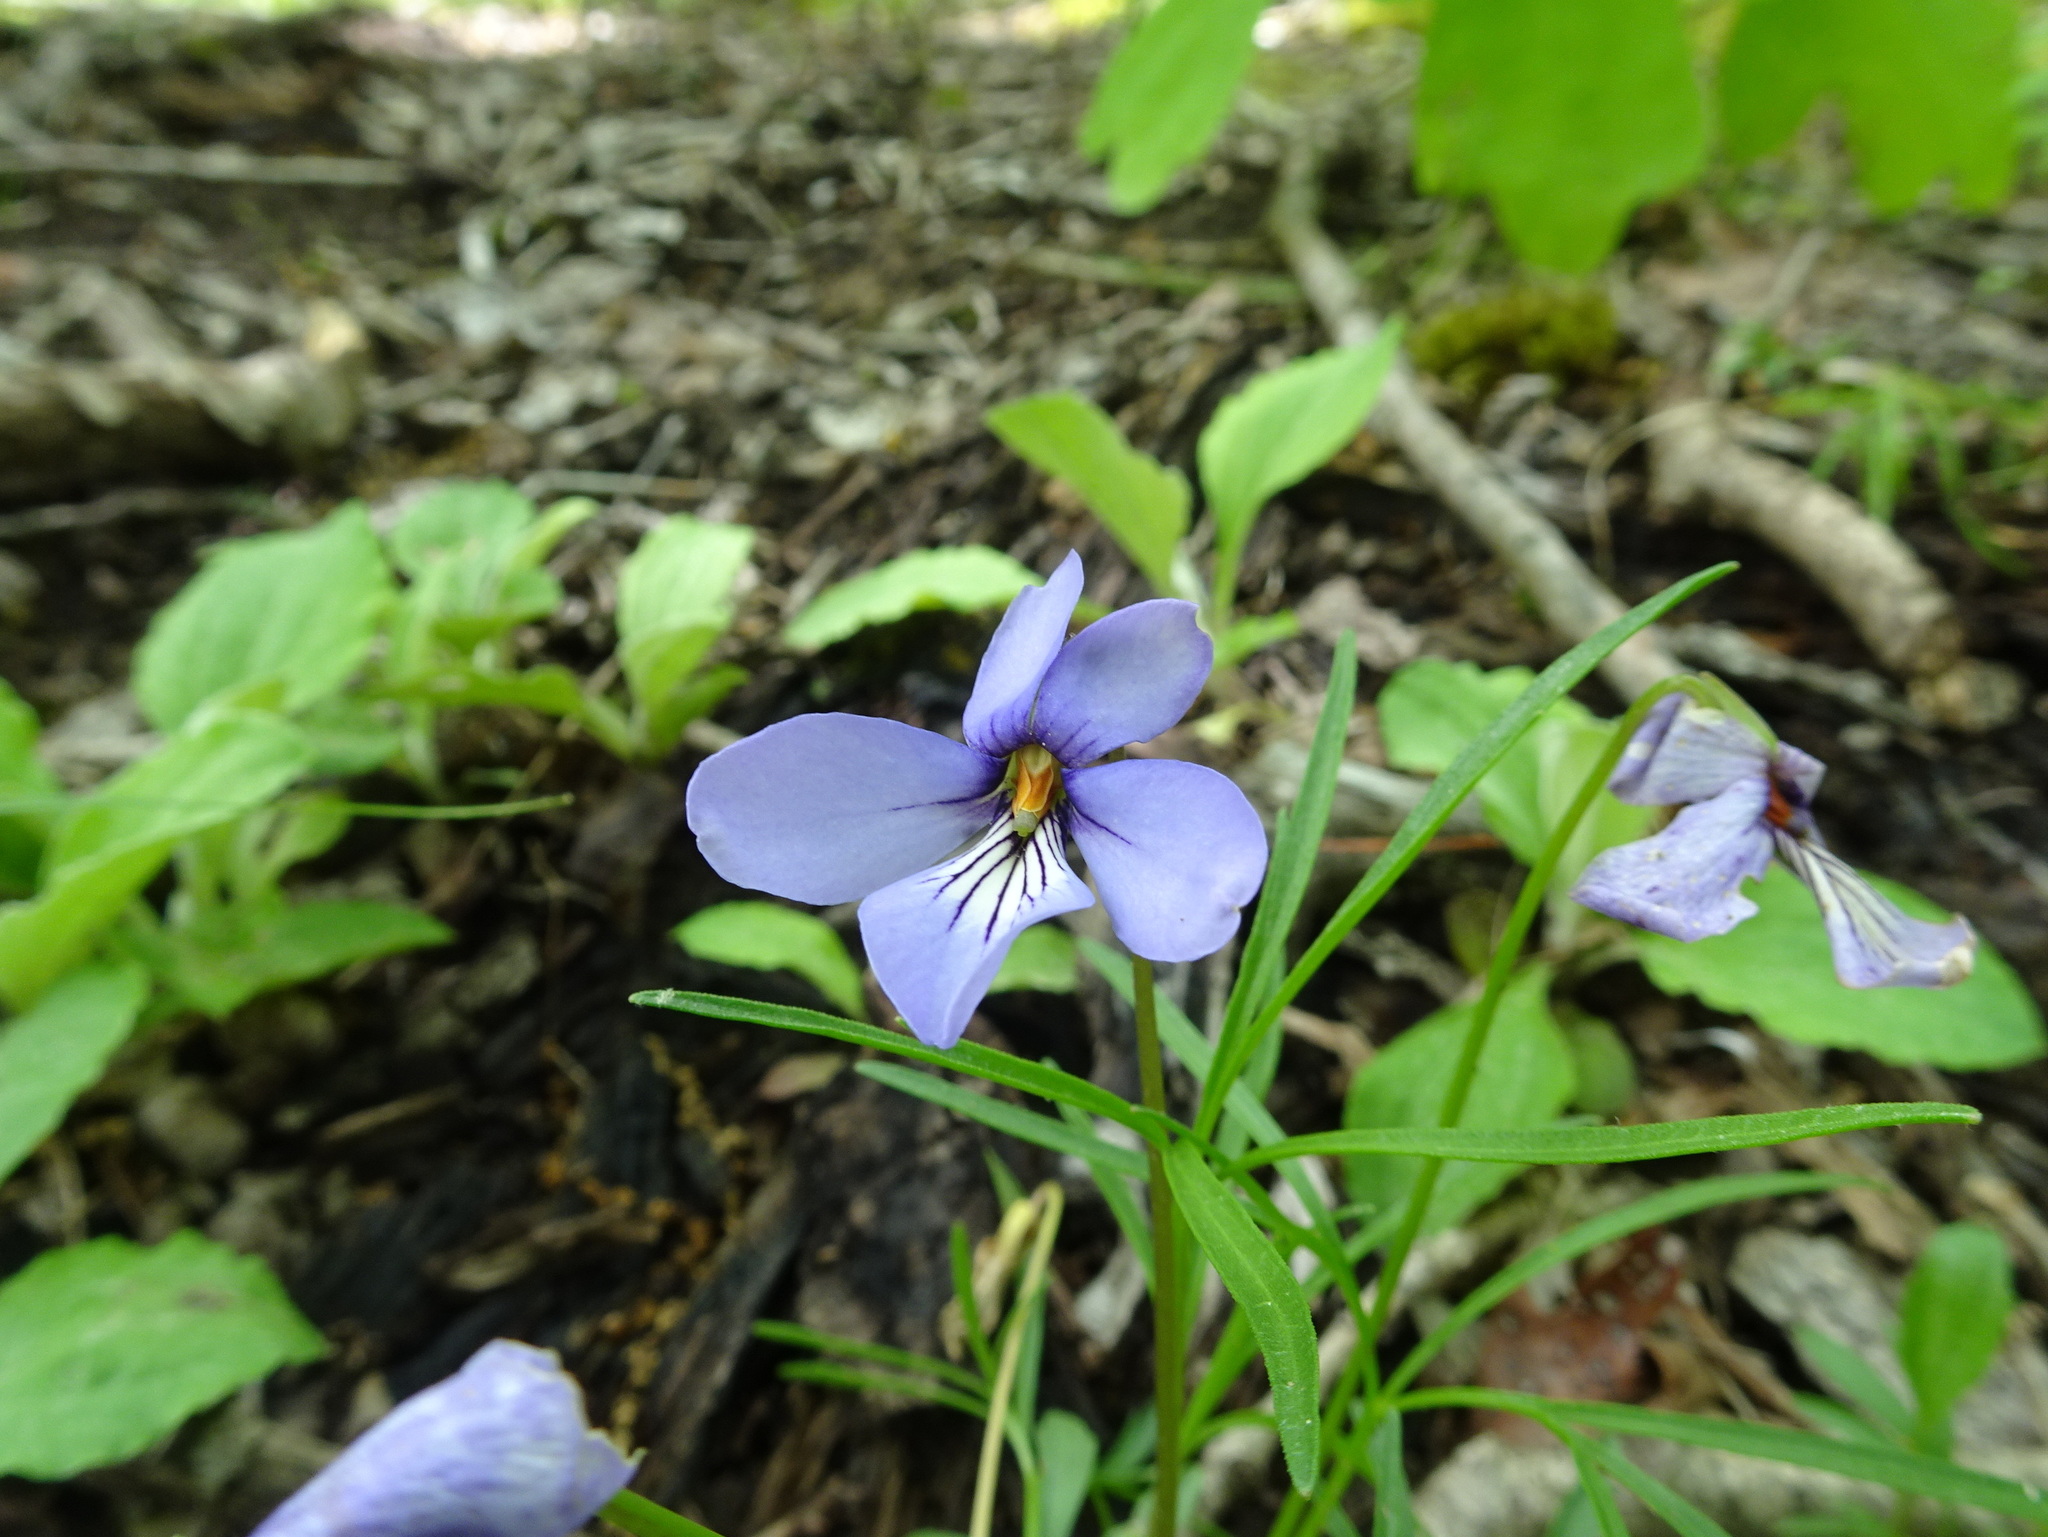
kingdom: Plantae
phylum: Tracheophyta
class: Magnoliopsida
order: Malpighiales
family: Violaceae
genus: Viola
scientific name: Viola pedata
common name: Pansy violet
